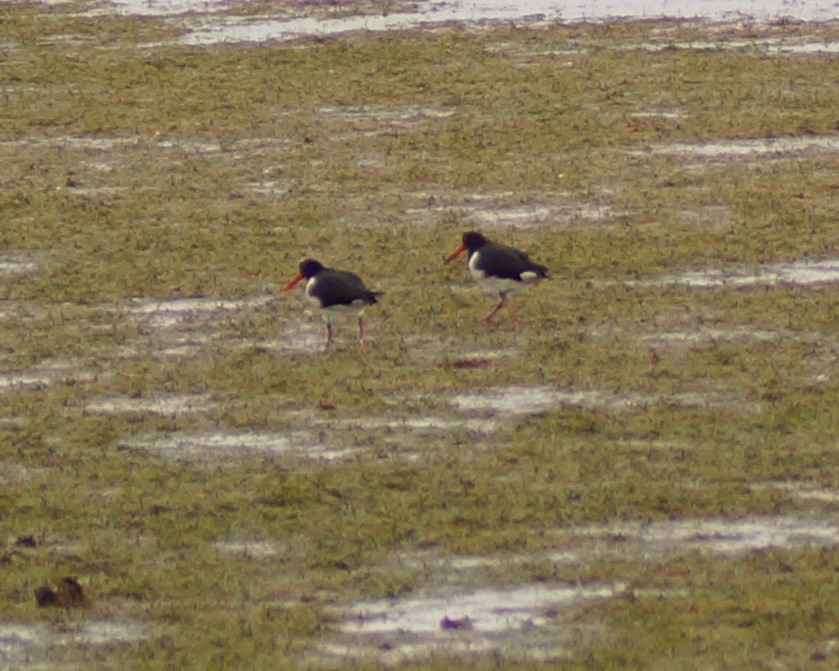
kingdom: Animalia
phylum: Chordata
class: Aves
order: Charadriiformes
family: Haematopodidae
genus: Haematopus
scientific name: Haematopus longirostris
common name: Pied oystercatcher
